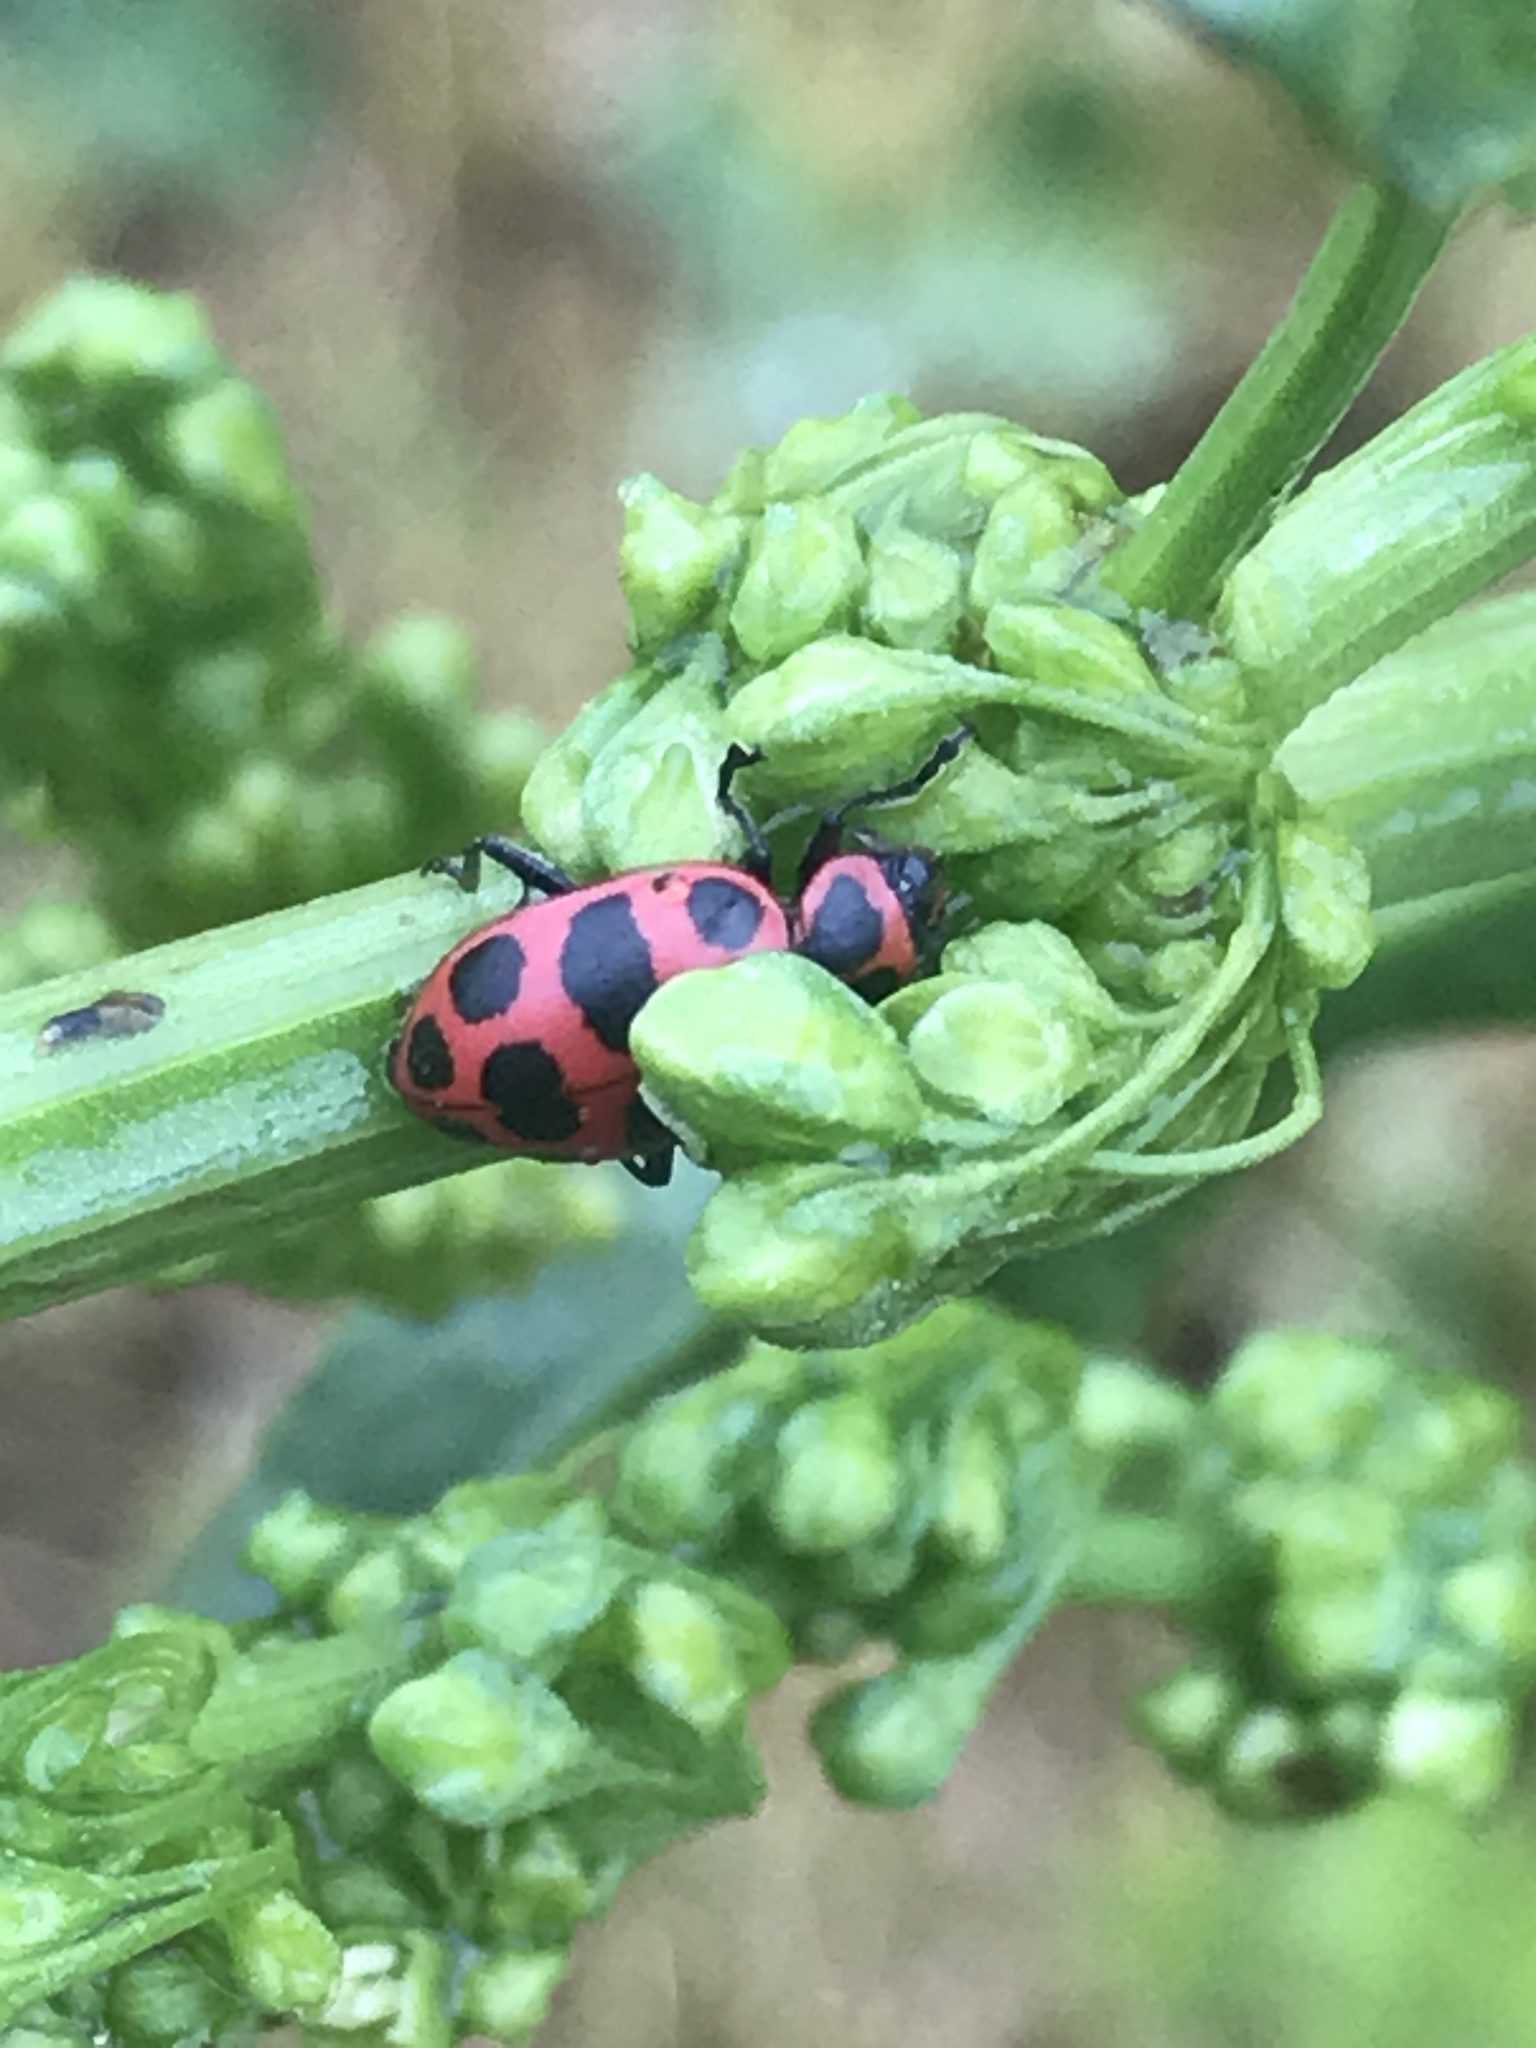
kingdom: Animalia
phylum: Arthropoda
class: Insecta
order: Coleoptera
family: Coccinellidae
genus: Coleomegilla
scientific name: Coleomegilla maculata
